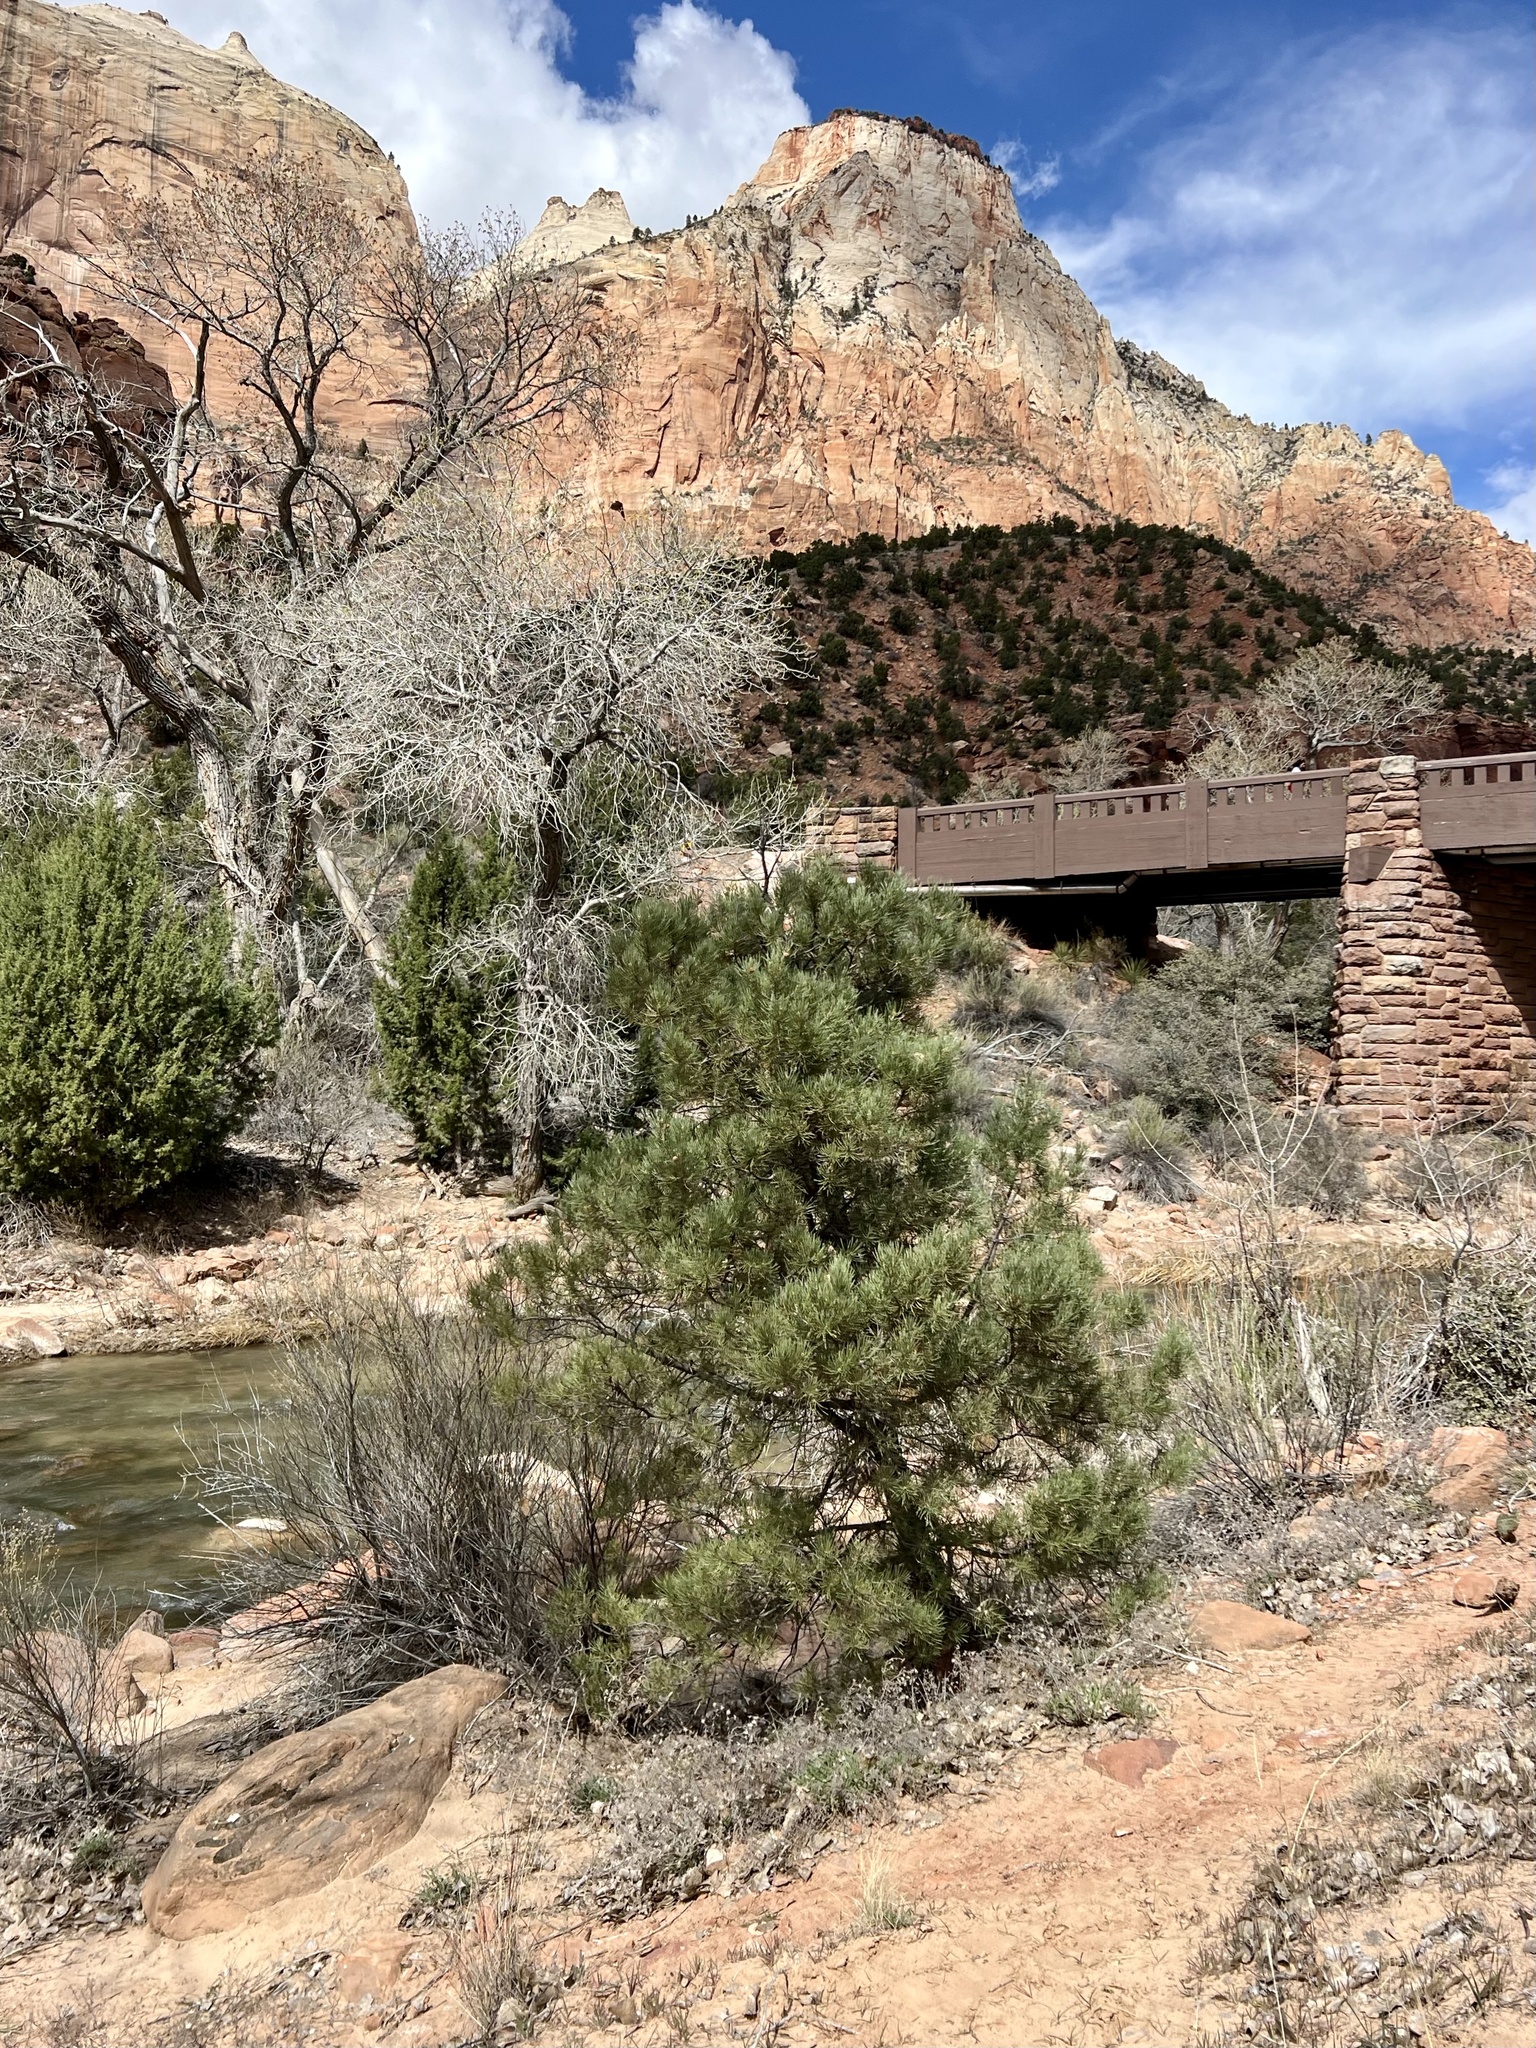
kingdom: Plantae
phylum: Tracheophyta
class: Pinopsida
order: Pinales
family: Pinaceae
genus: Pinus
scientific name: Pinus monophylla
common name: One-leaved nut pine
